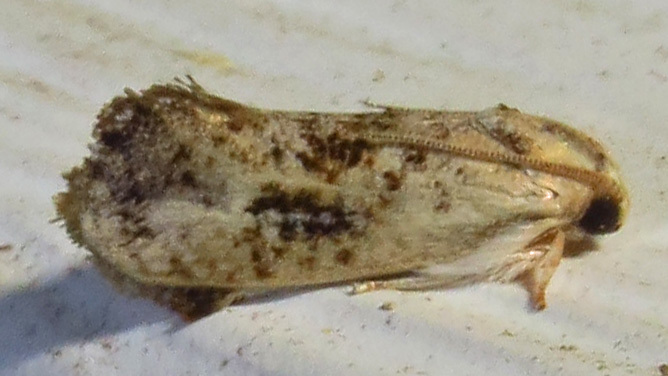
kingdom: Animalia
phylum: Arthropoda
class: Insecta
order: Lepidoptera
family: Tineidae
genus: Acrolophus
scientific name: Acrolophus mycetophagus
